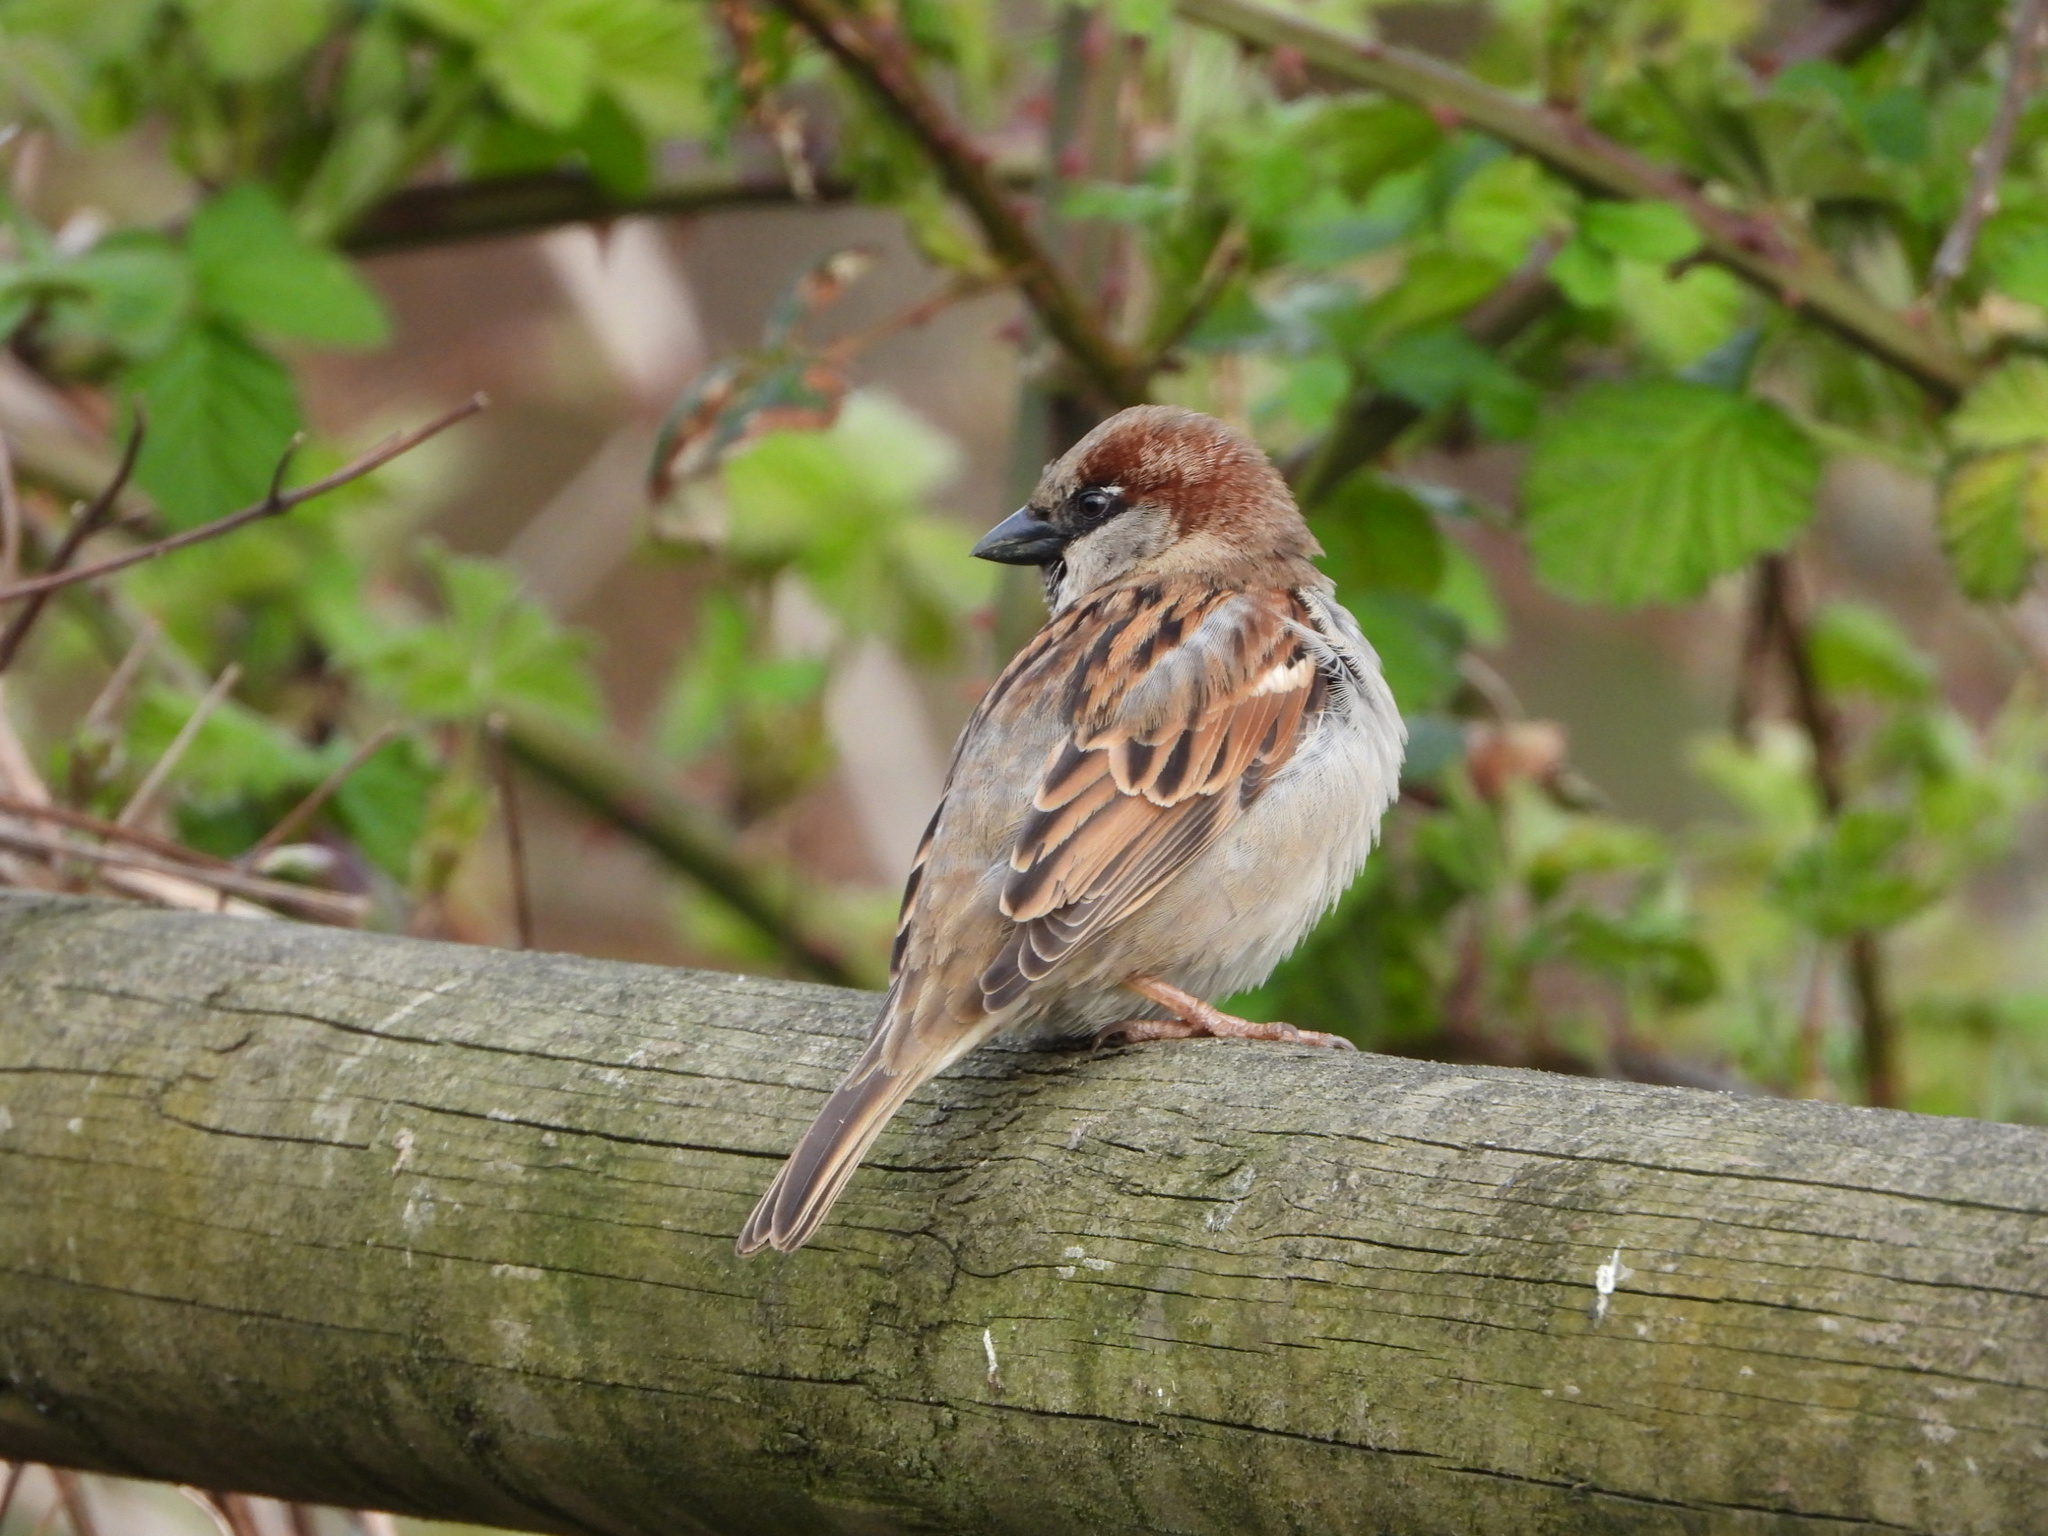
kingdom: Animalia
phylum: Chordata
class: Aves
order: Passeriformes
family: Passeridae
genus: Passer
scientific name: Passer domesticus
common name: House sparrow
